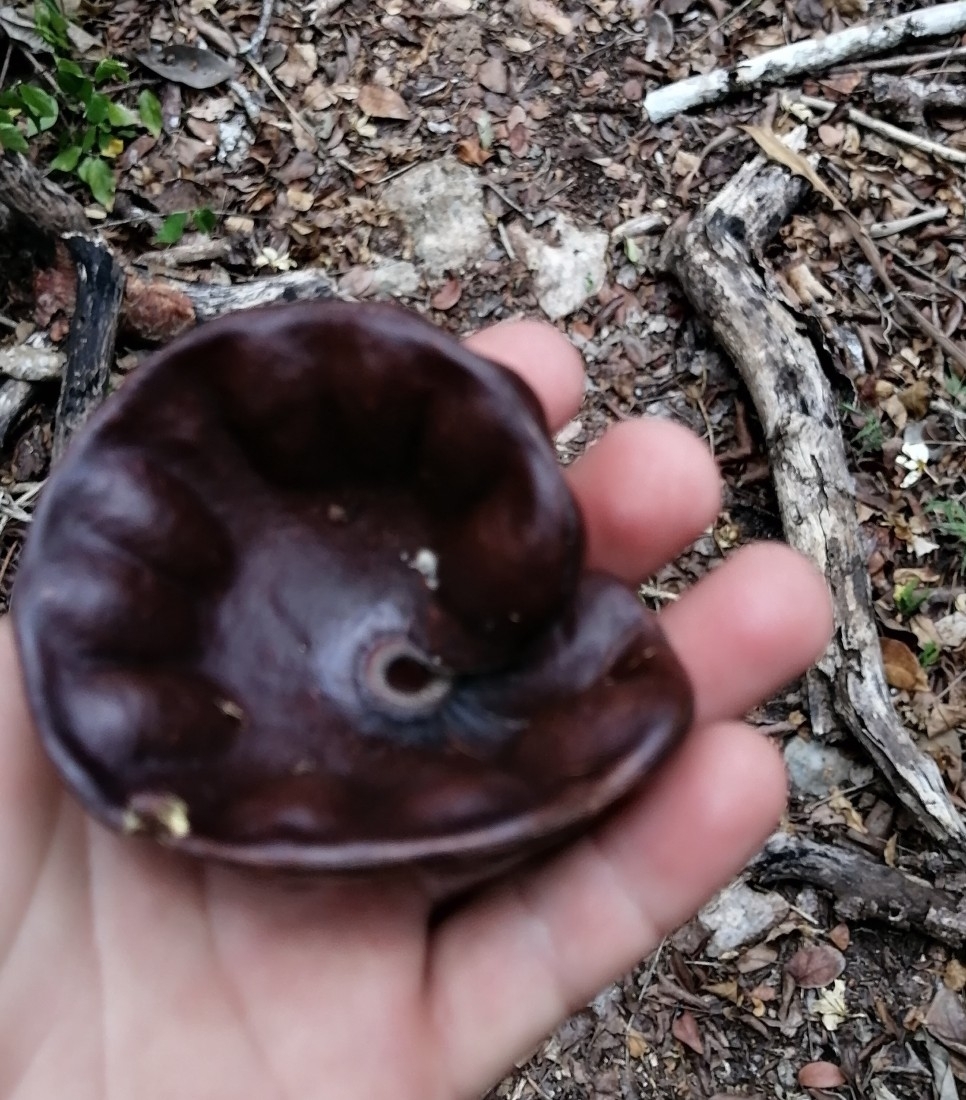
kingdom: Plantae
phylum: Tracheophyta
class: Magnoliopsida
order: Fabales
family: Fabaceae
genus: Enterolobium
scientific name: Enterolobium cyclocarpum
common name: Ear tree
